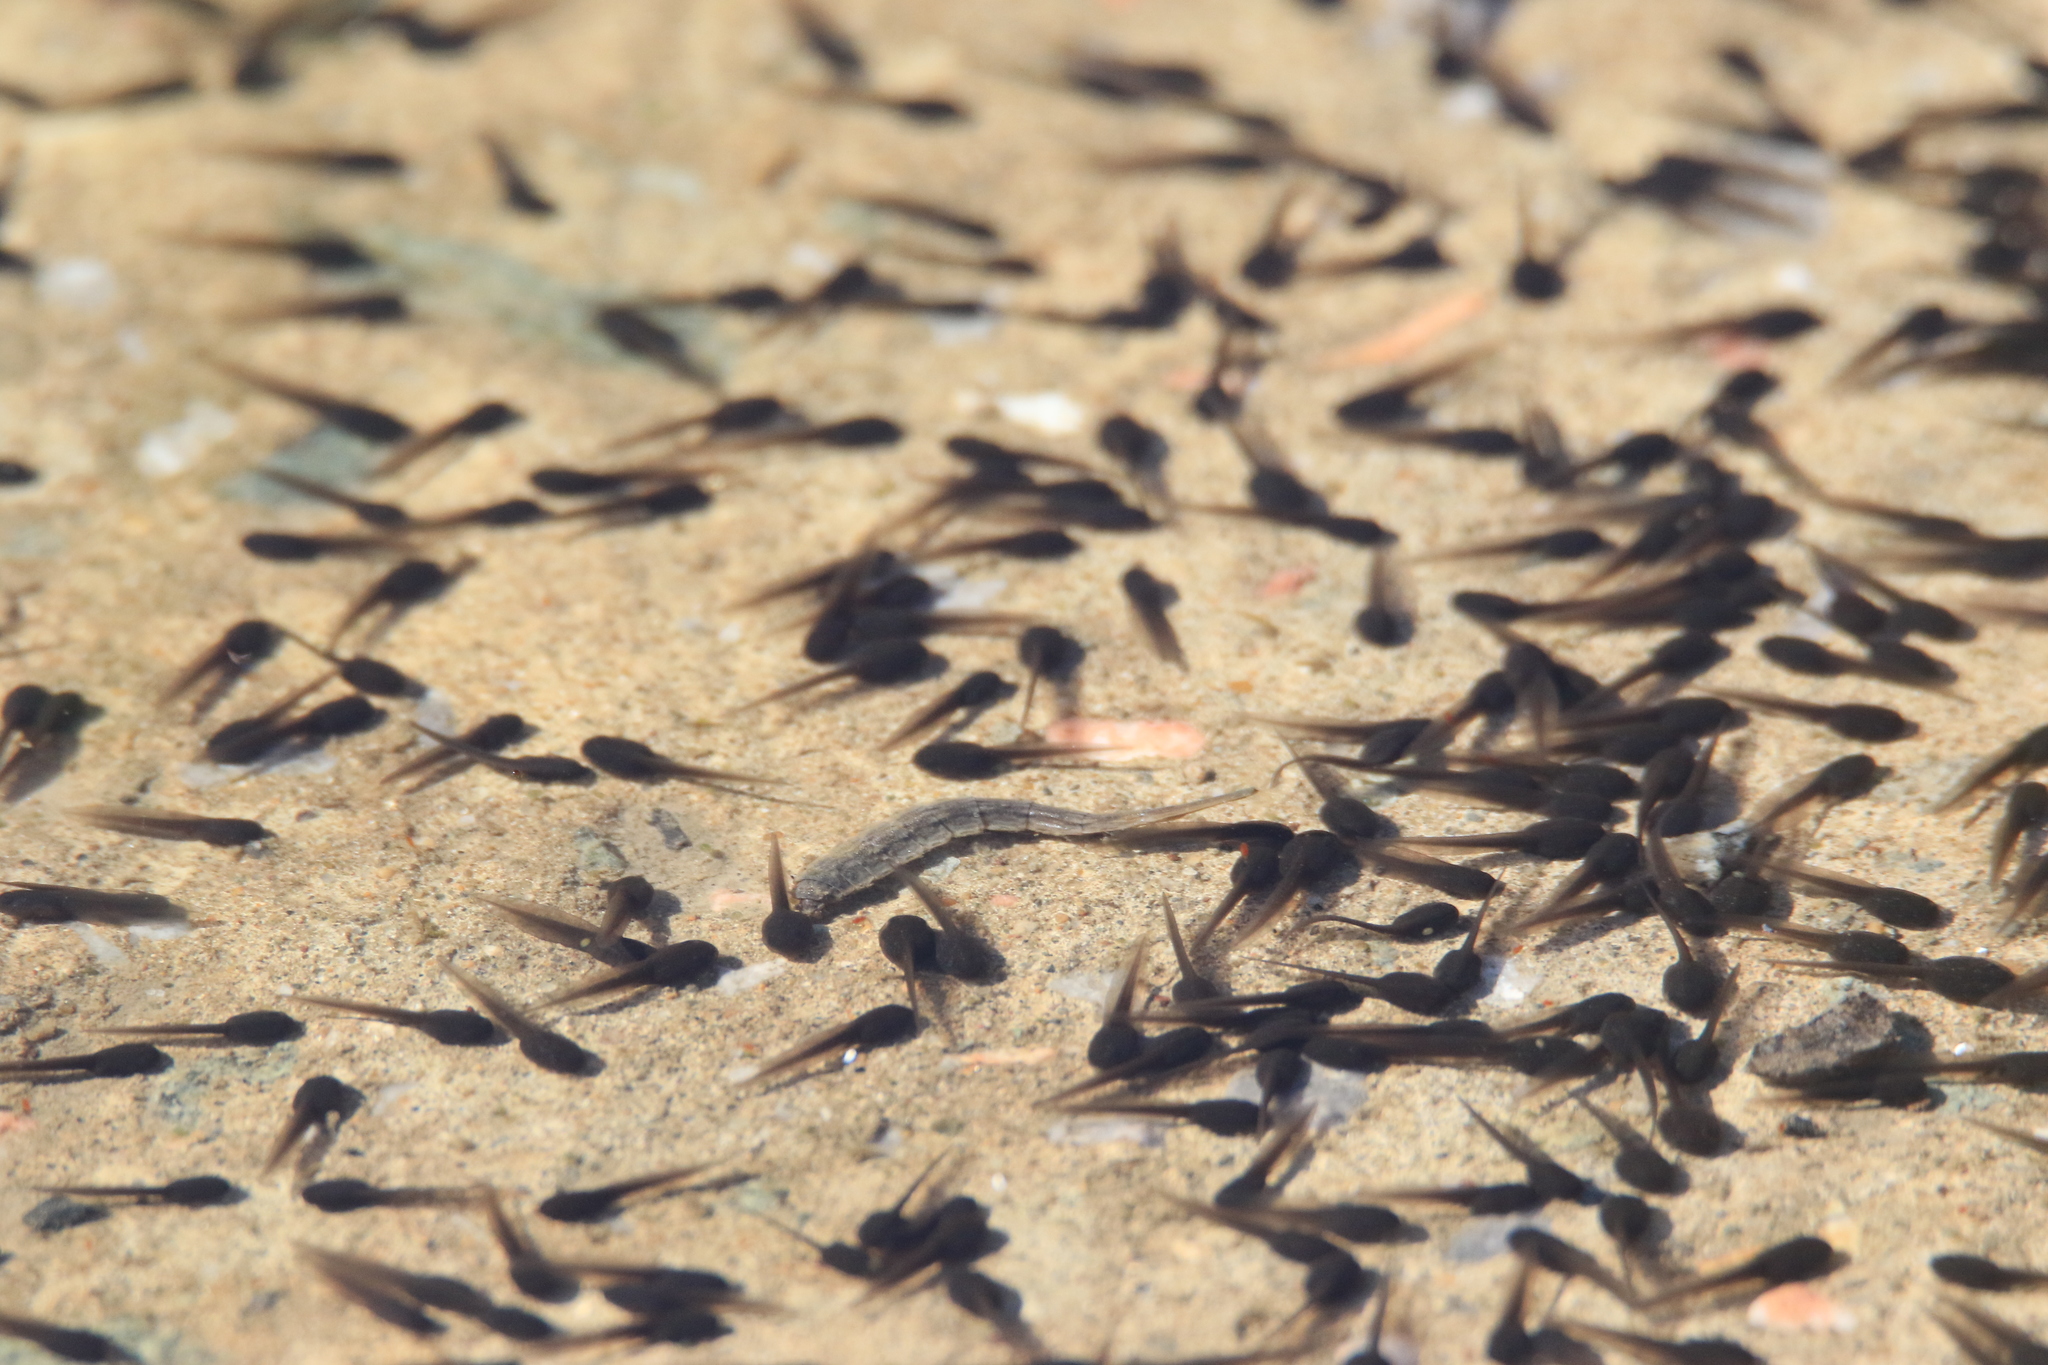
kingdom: Animalia
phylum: Chordata
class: Amphibia
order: Anura
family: Bufonidae
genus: Bufo
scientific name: Bufo bufo
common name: Common toad
